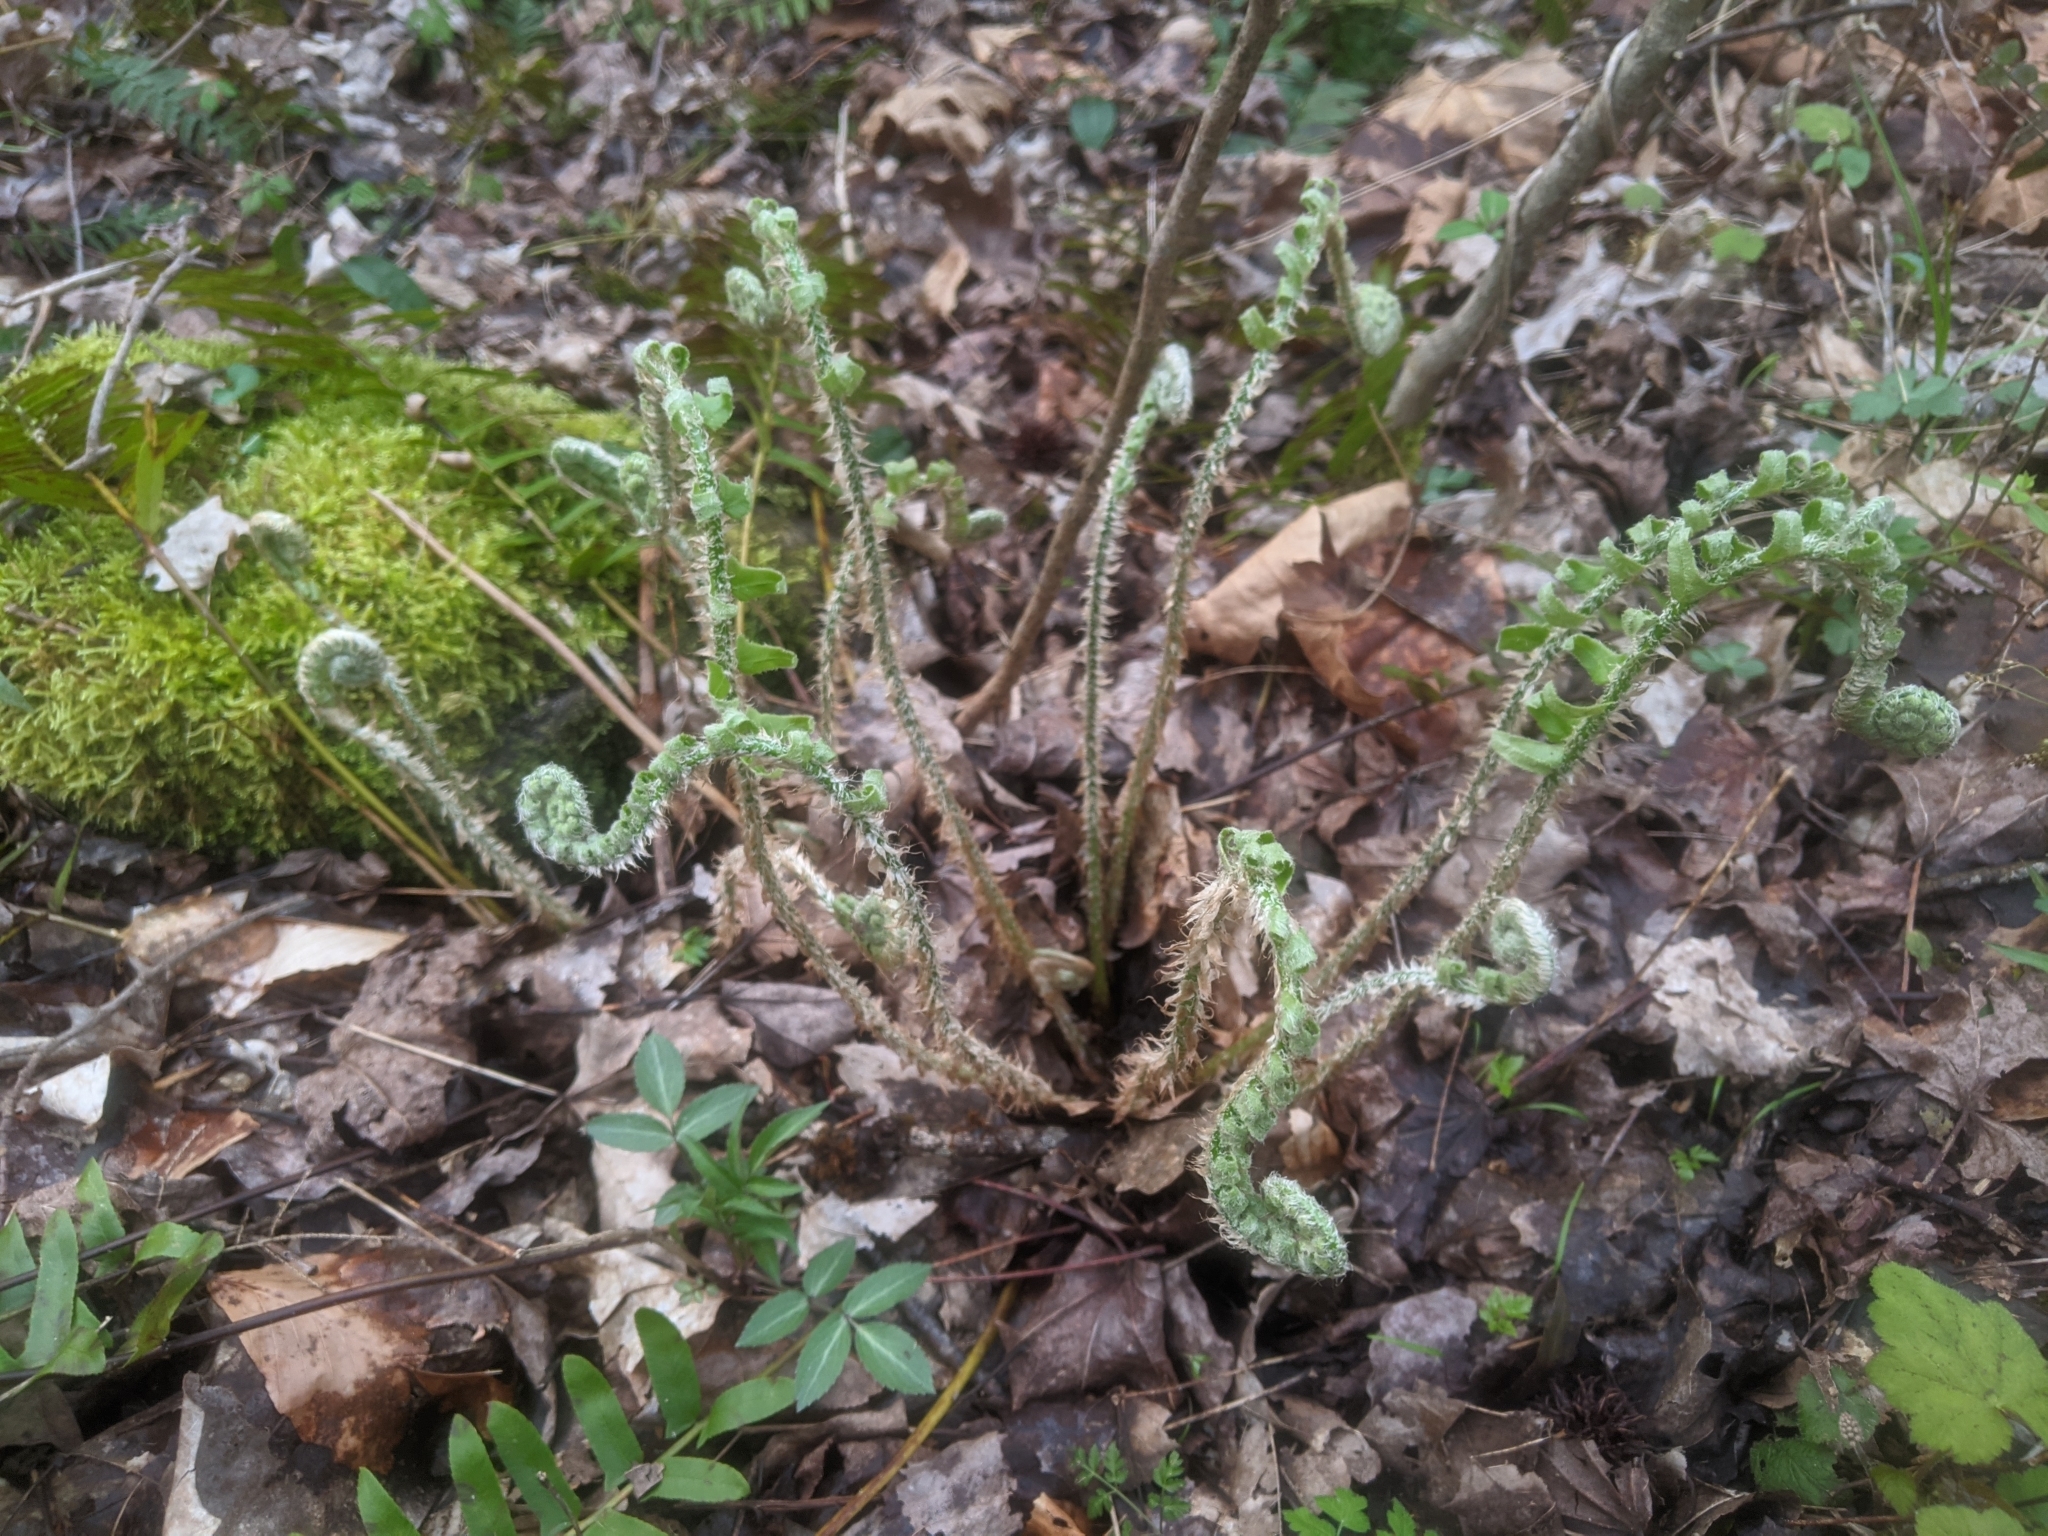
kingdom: Plantae
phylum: Tracheophyta
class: Polypodiopsida
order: Polypodiales
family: Dryopteridaceae
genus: Polystichum
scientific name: Polystichum acrostichoides
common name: Christmas fern
